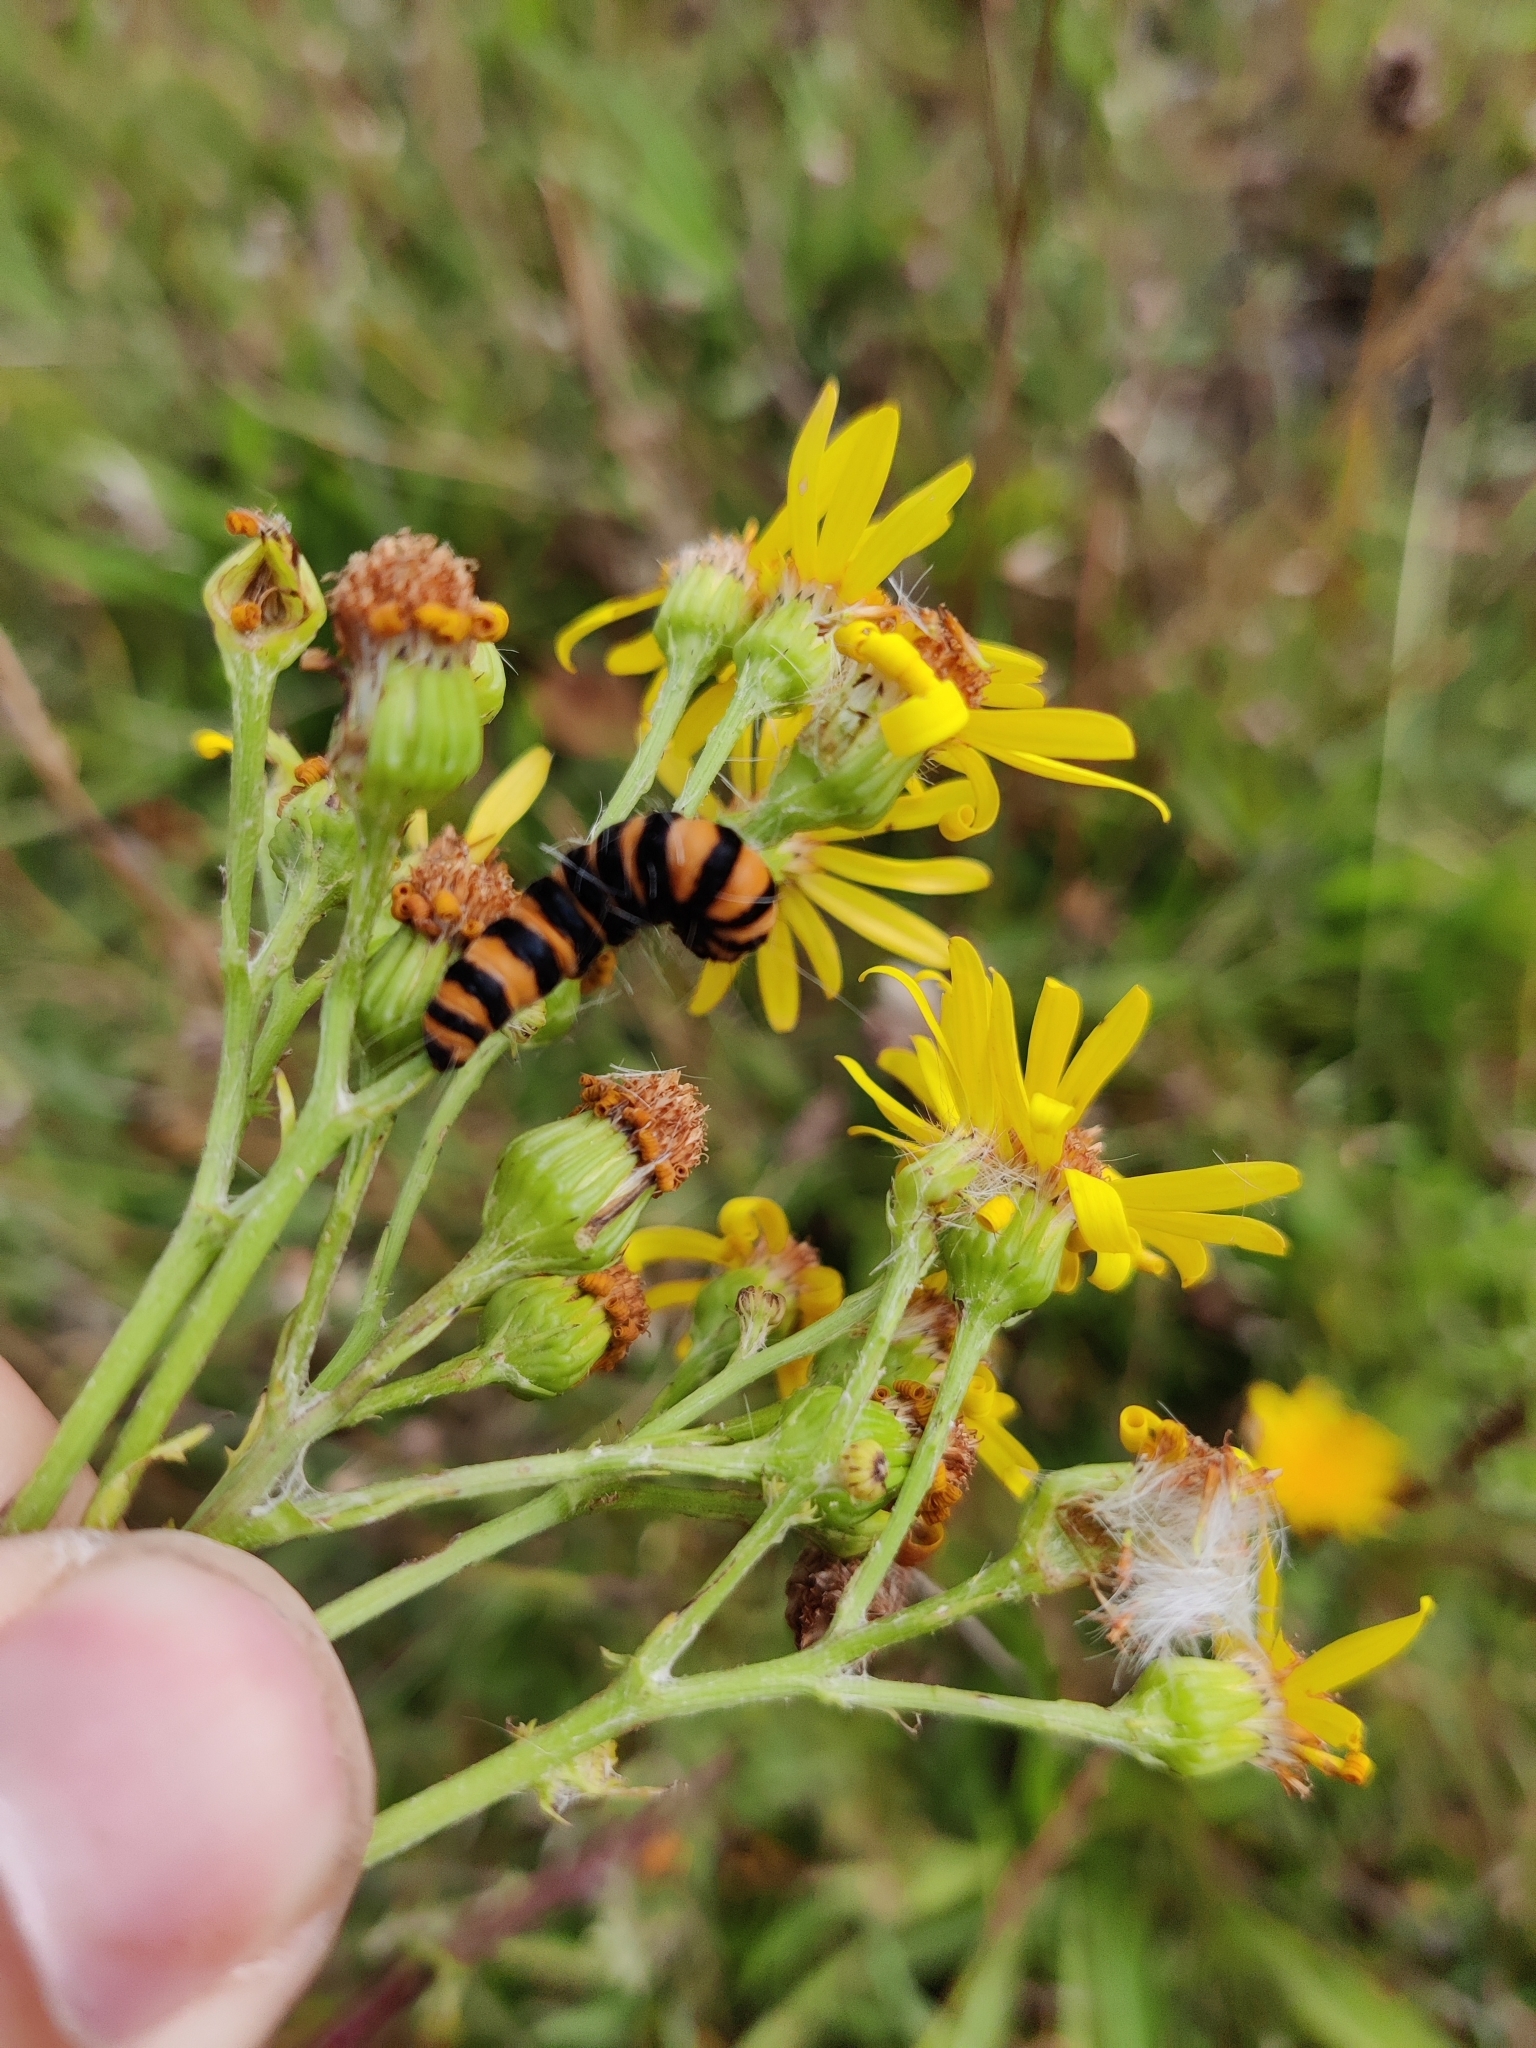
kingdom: Animalia
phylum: Arthropoda
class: Insecta
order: Lepidoptera
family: Erebidae
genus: Tyria
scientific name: Tyria jacobaeae
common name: Cinnabar
